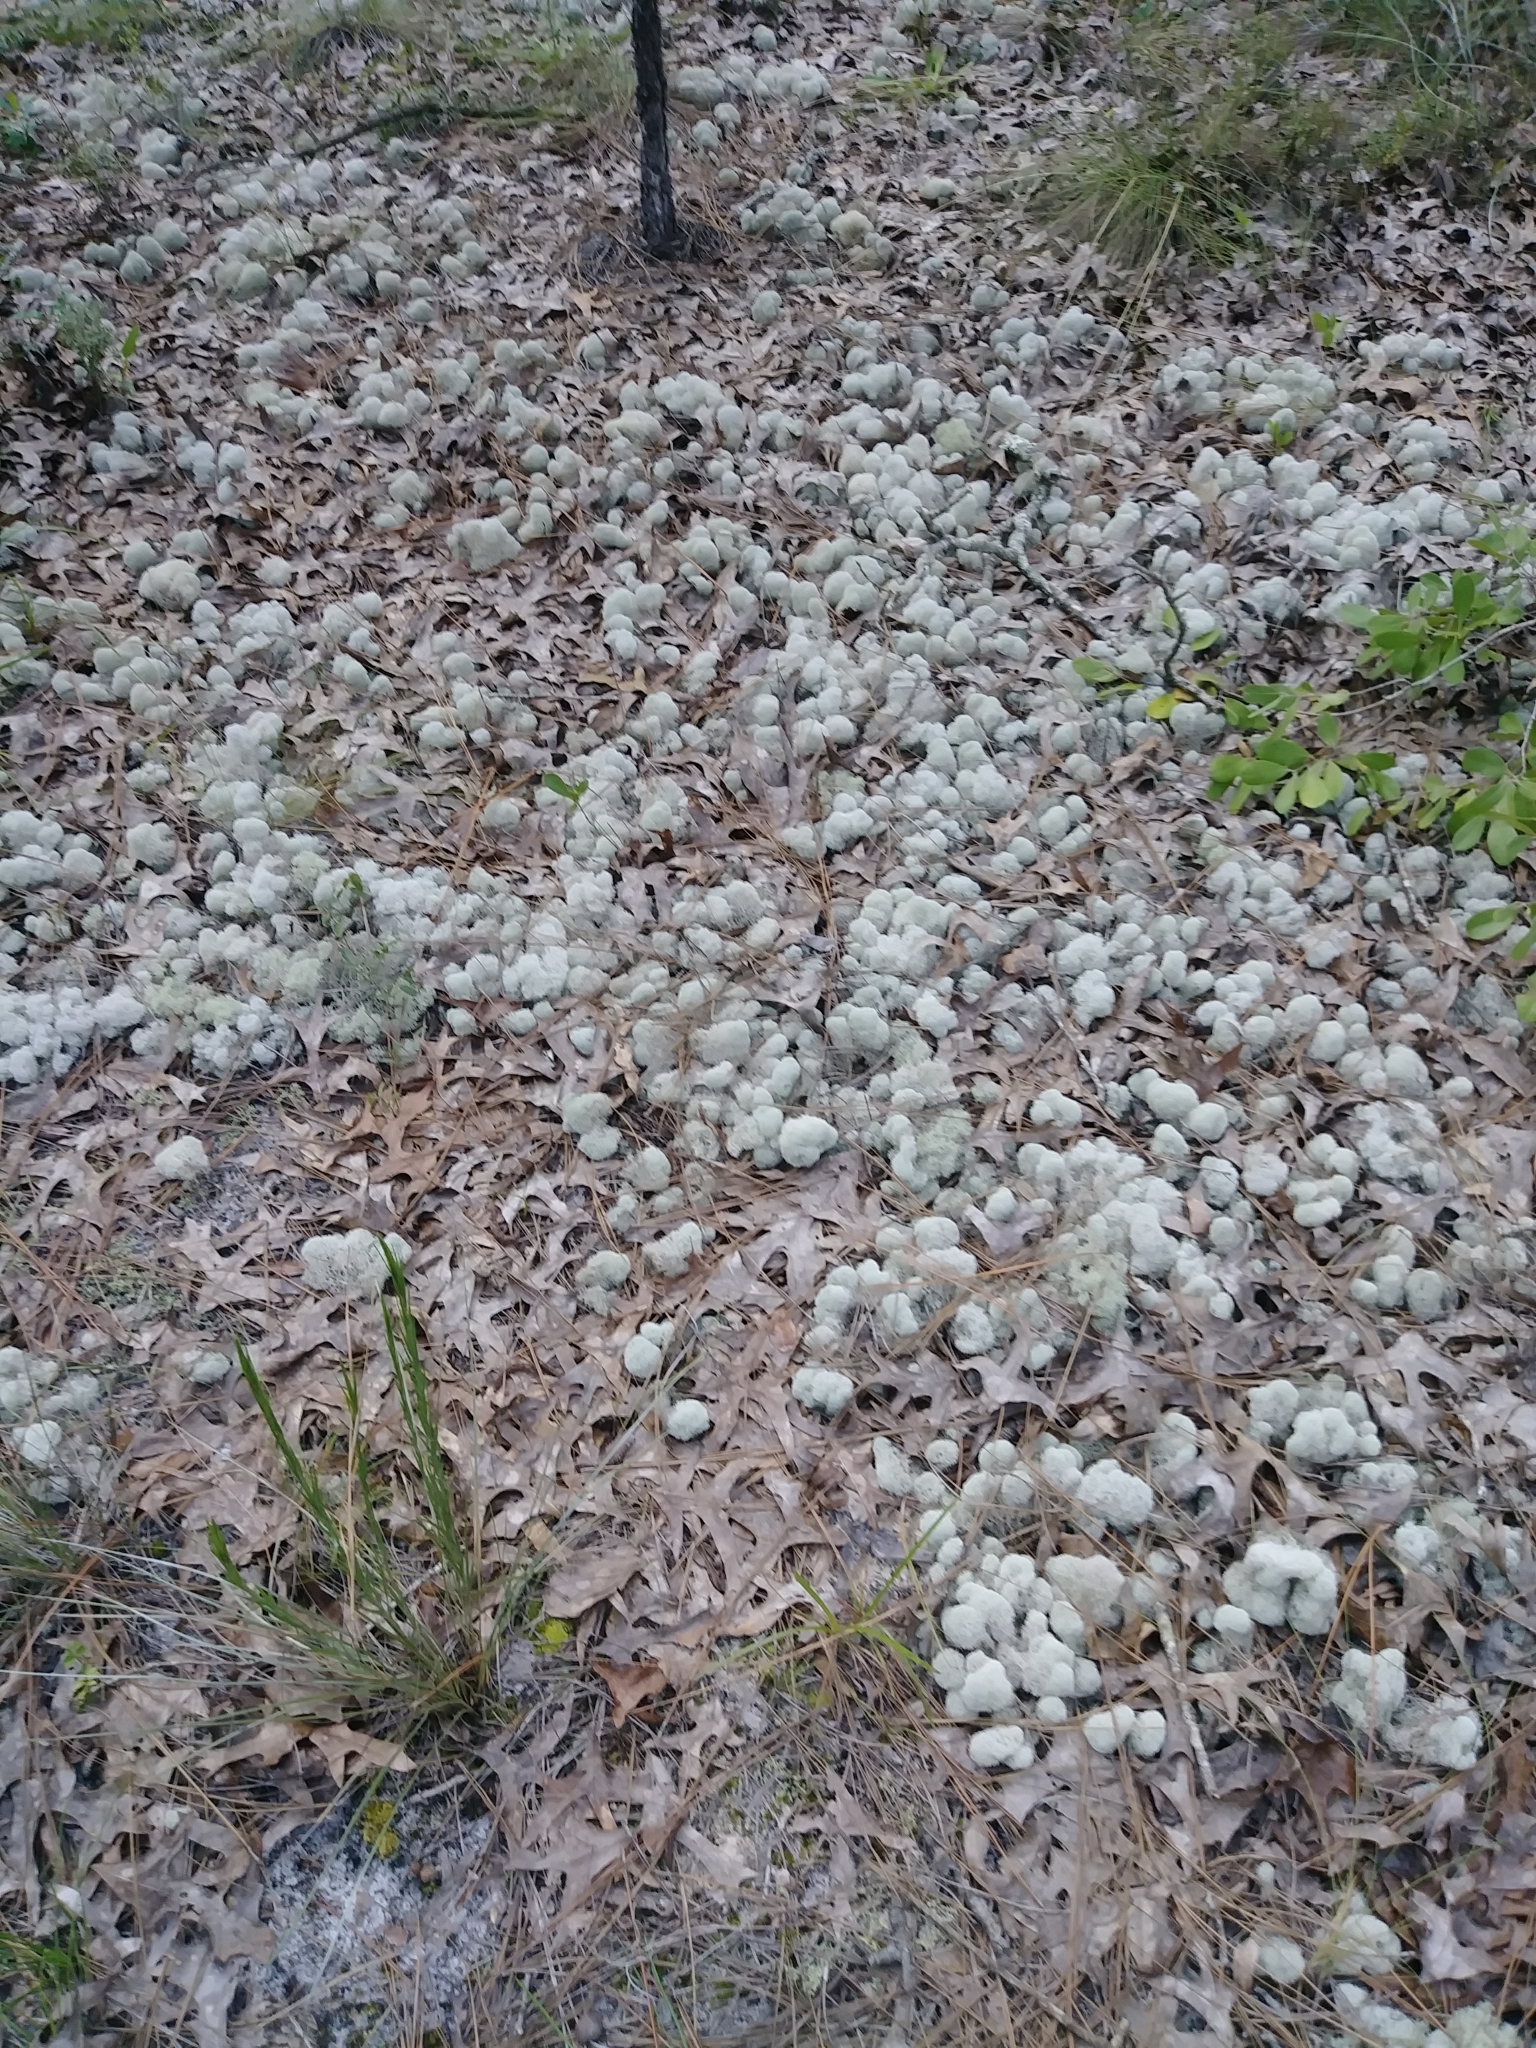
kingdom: Fungi
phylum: Ascomycota
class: Lecanoromycetes
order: Lecanorales
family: Cladoniaceae
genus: Cladonia
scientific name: Cladonia evansii
